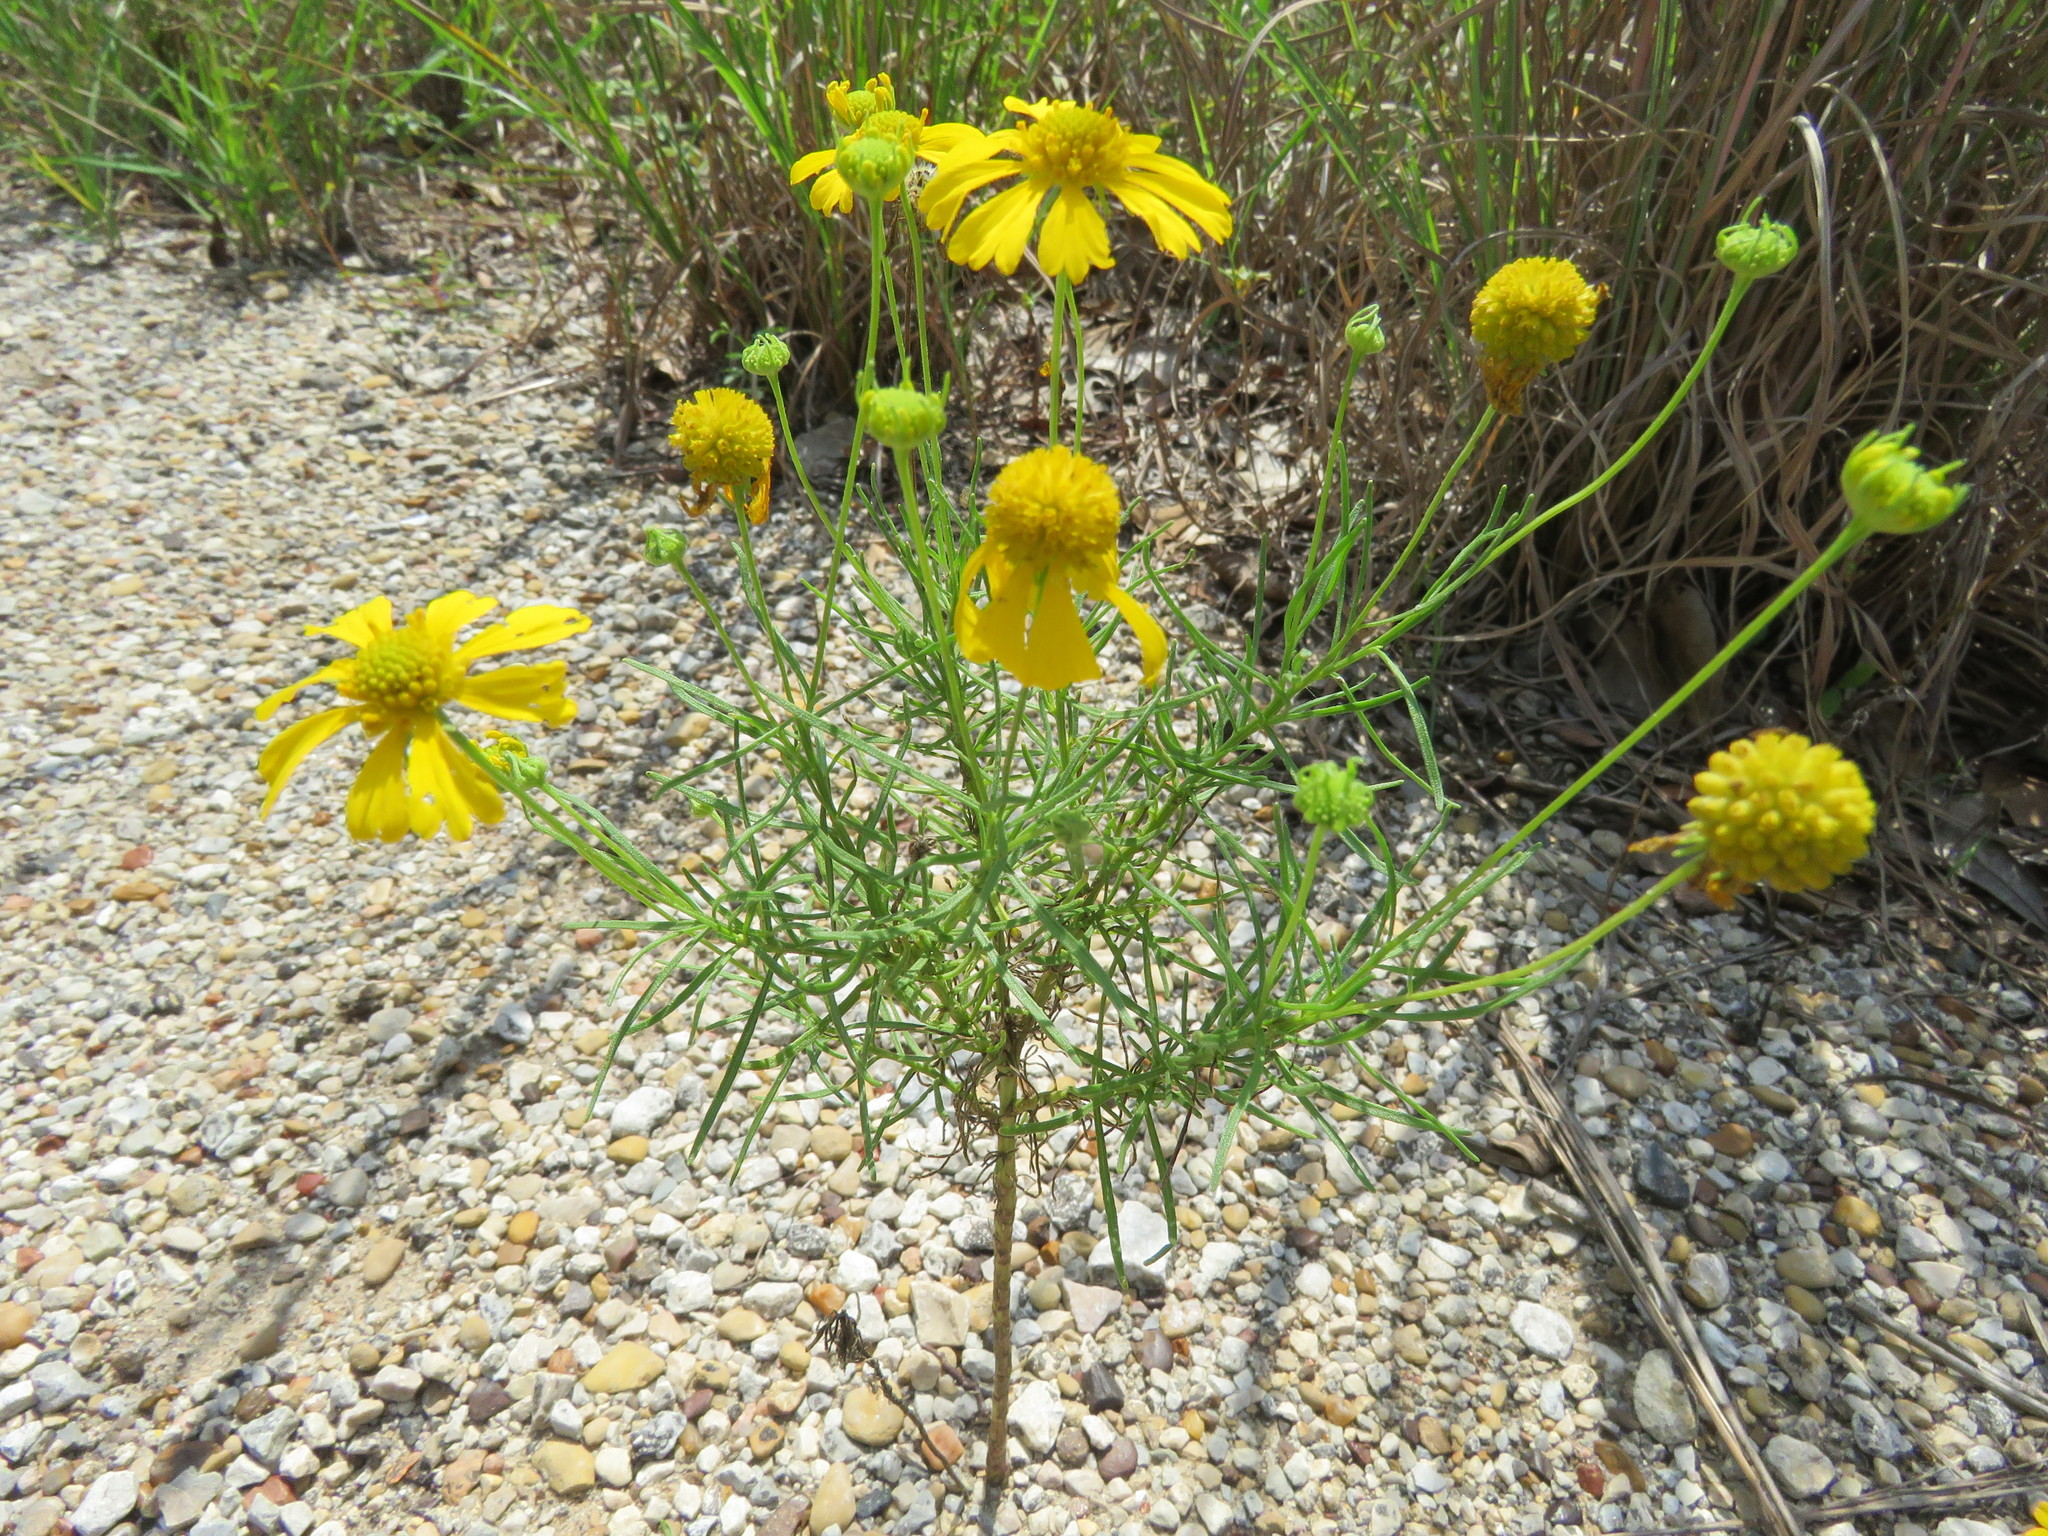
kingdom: Plantae
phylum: Tracheophyta
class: Magnoliopsida
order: Asterales
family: Asteraceae
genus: Helenium
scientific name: Helenium amarum
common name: Bitter sneezeweed
